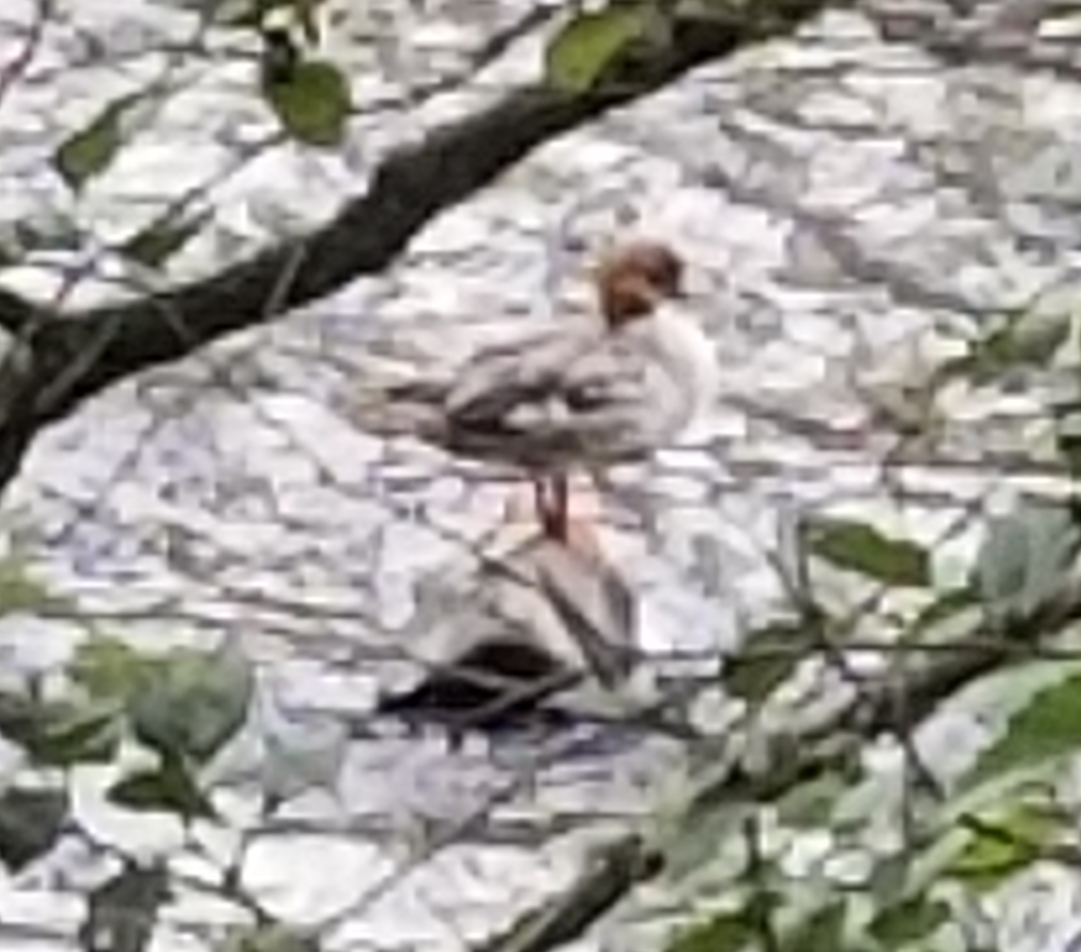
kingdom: Animalia
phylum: Chordata
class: Aves
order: Anseriformes
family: Anatidae
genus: Mergus
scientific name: Mergus merganser
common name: Common merganser
